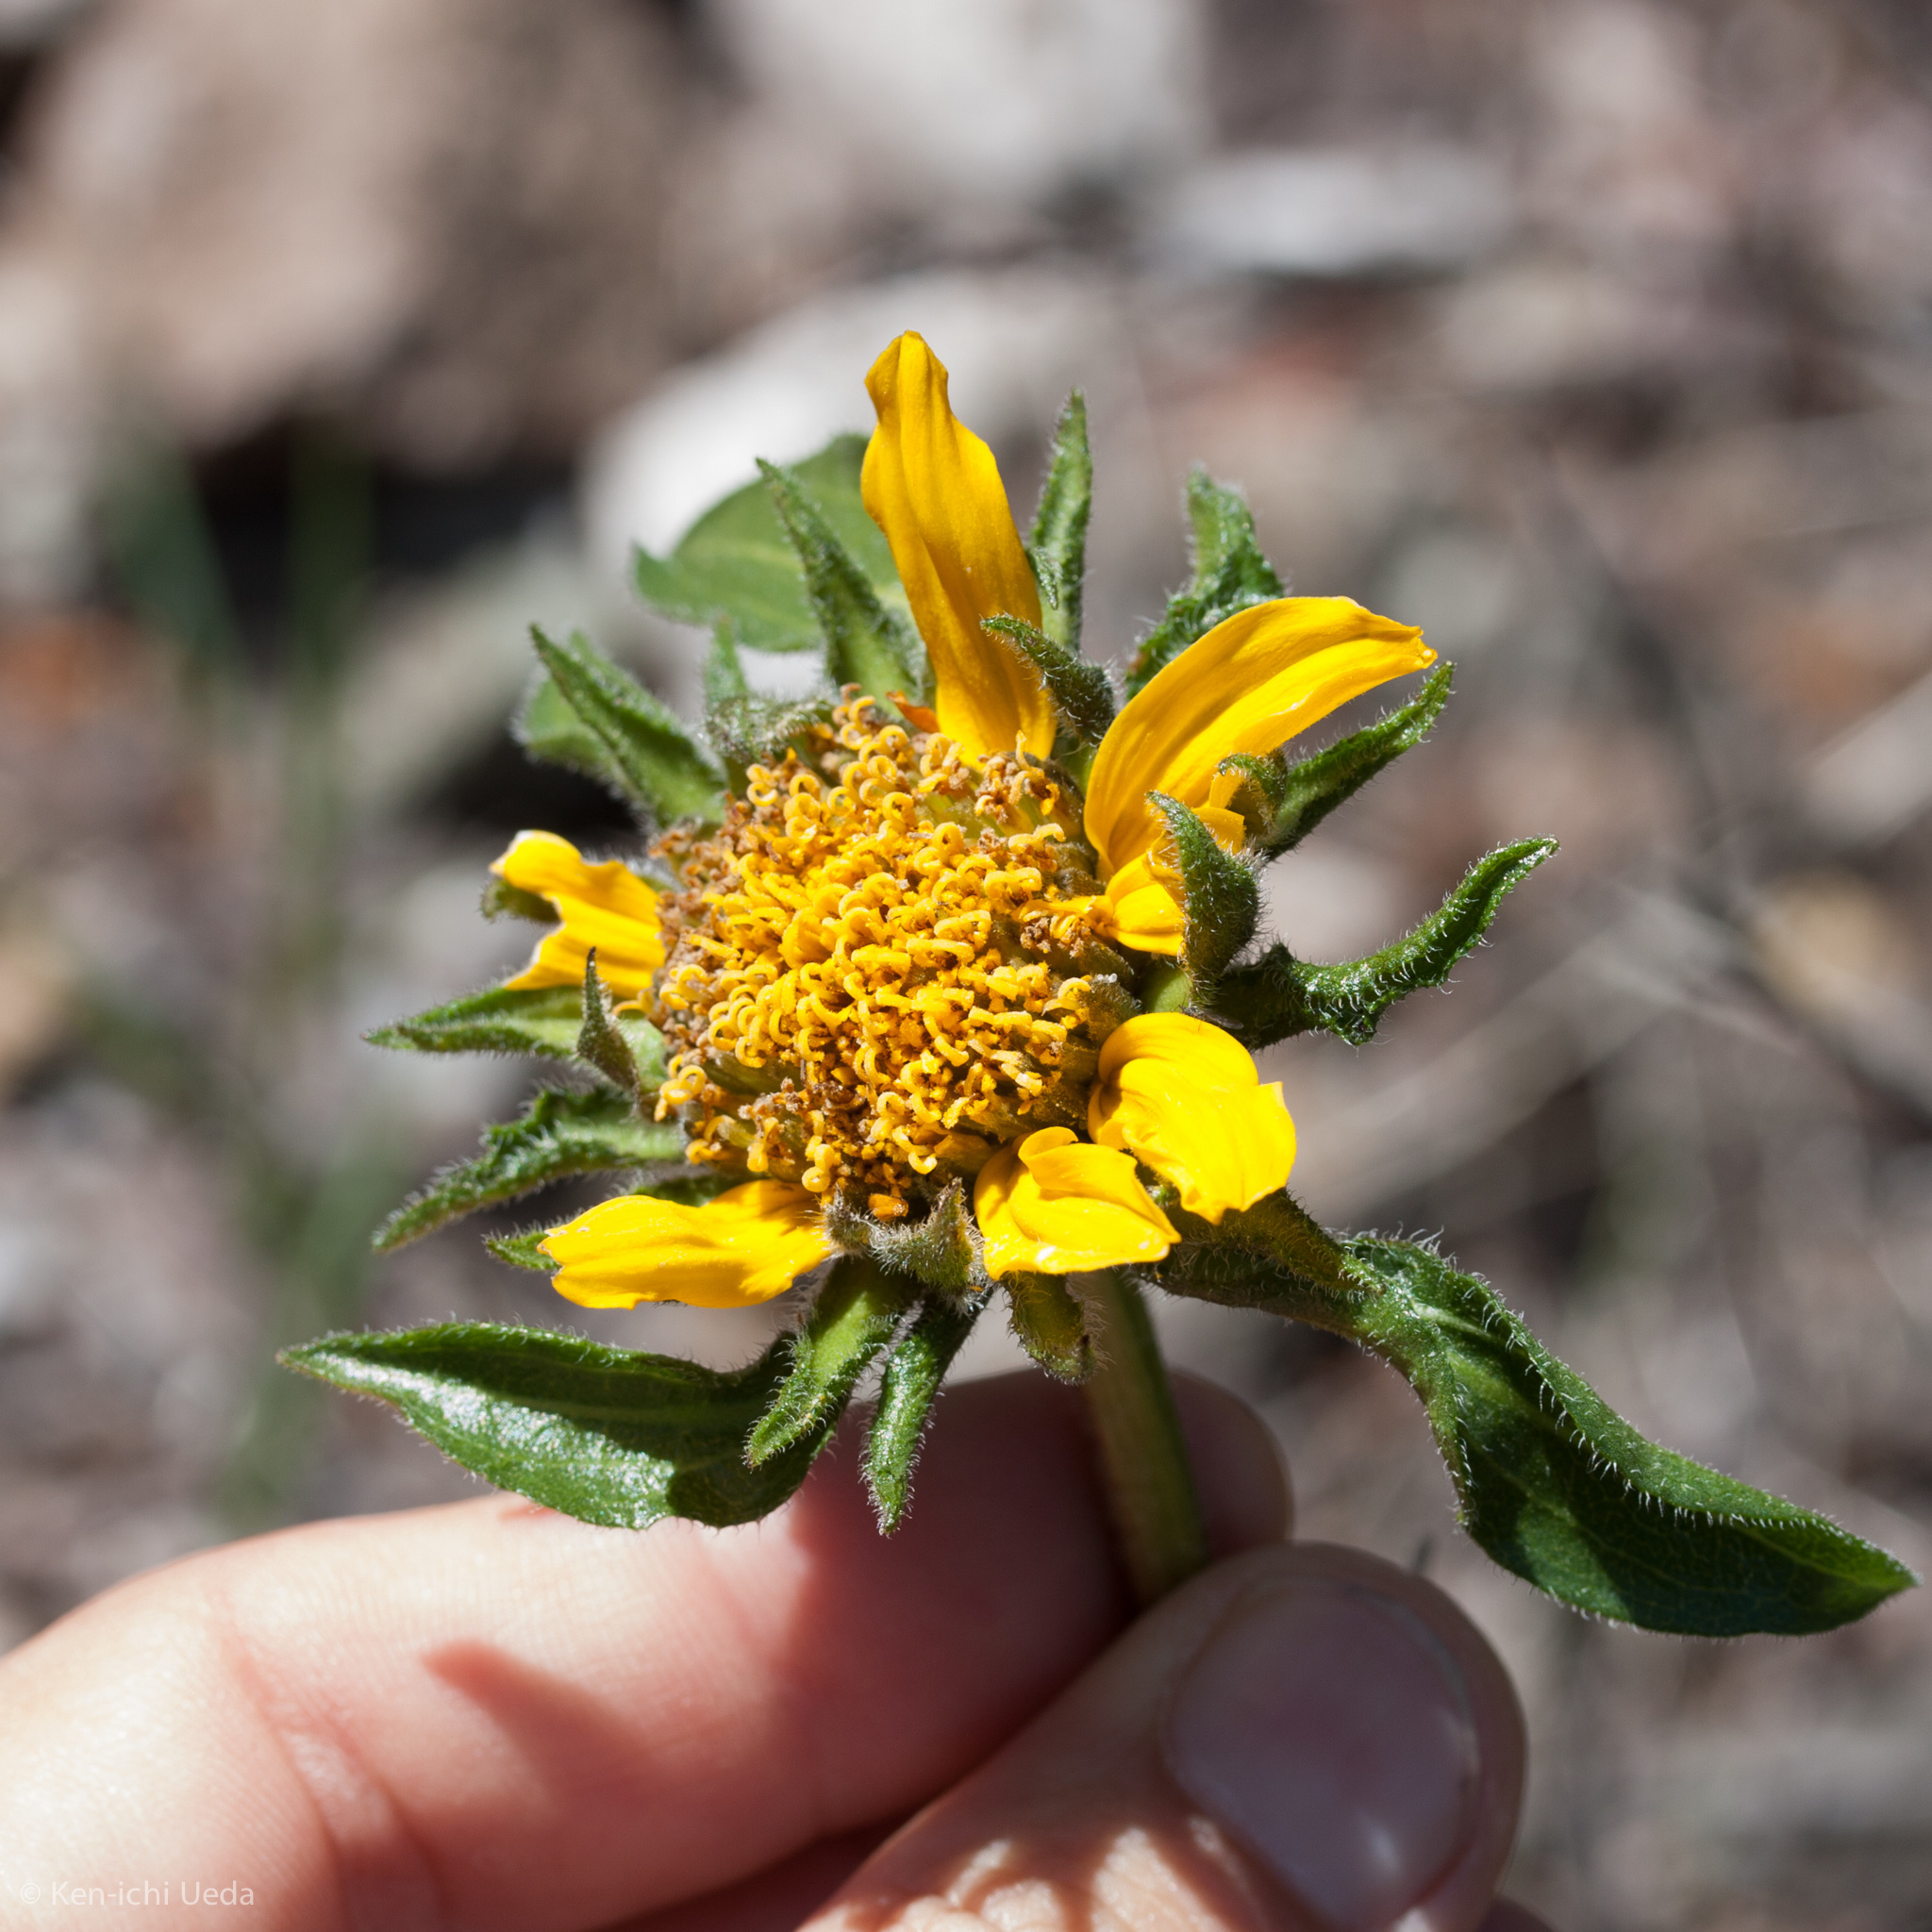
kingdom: Plantae
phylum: Tracheophyta
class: Magnoliopsida
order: Asterales
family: Asteraceae
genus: Helianthella
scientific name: Helianthella castanea
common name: Diablo helianthella
